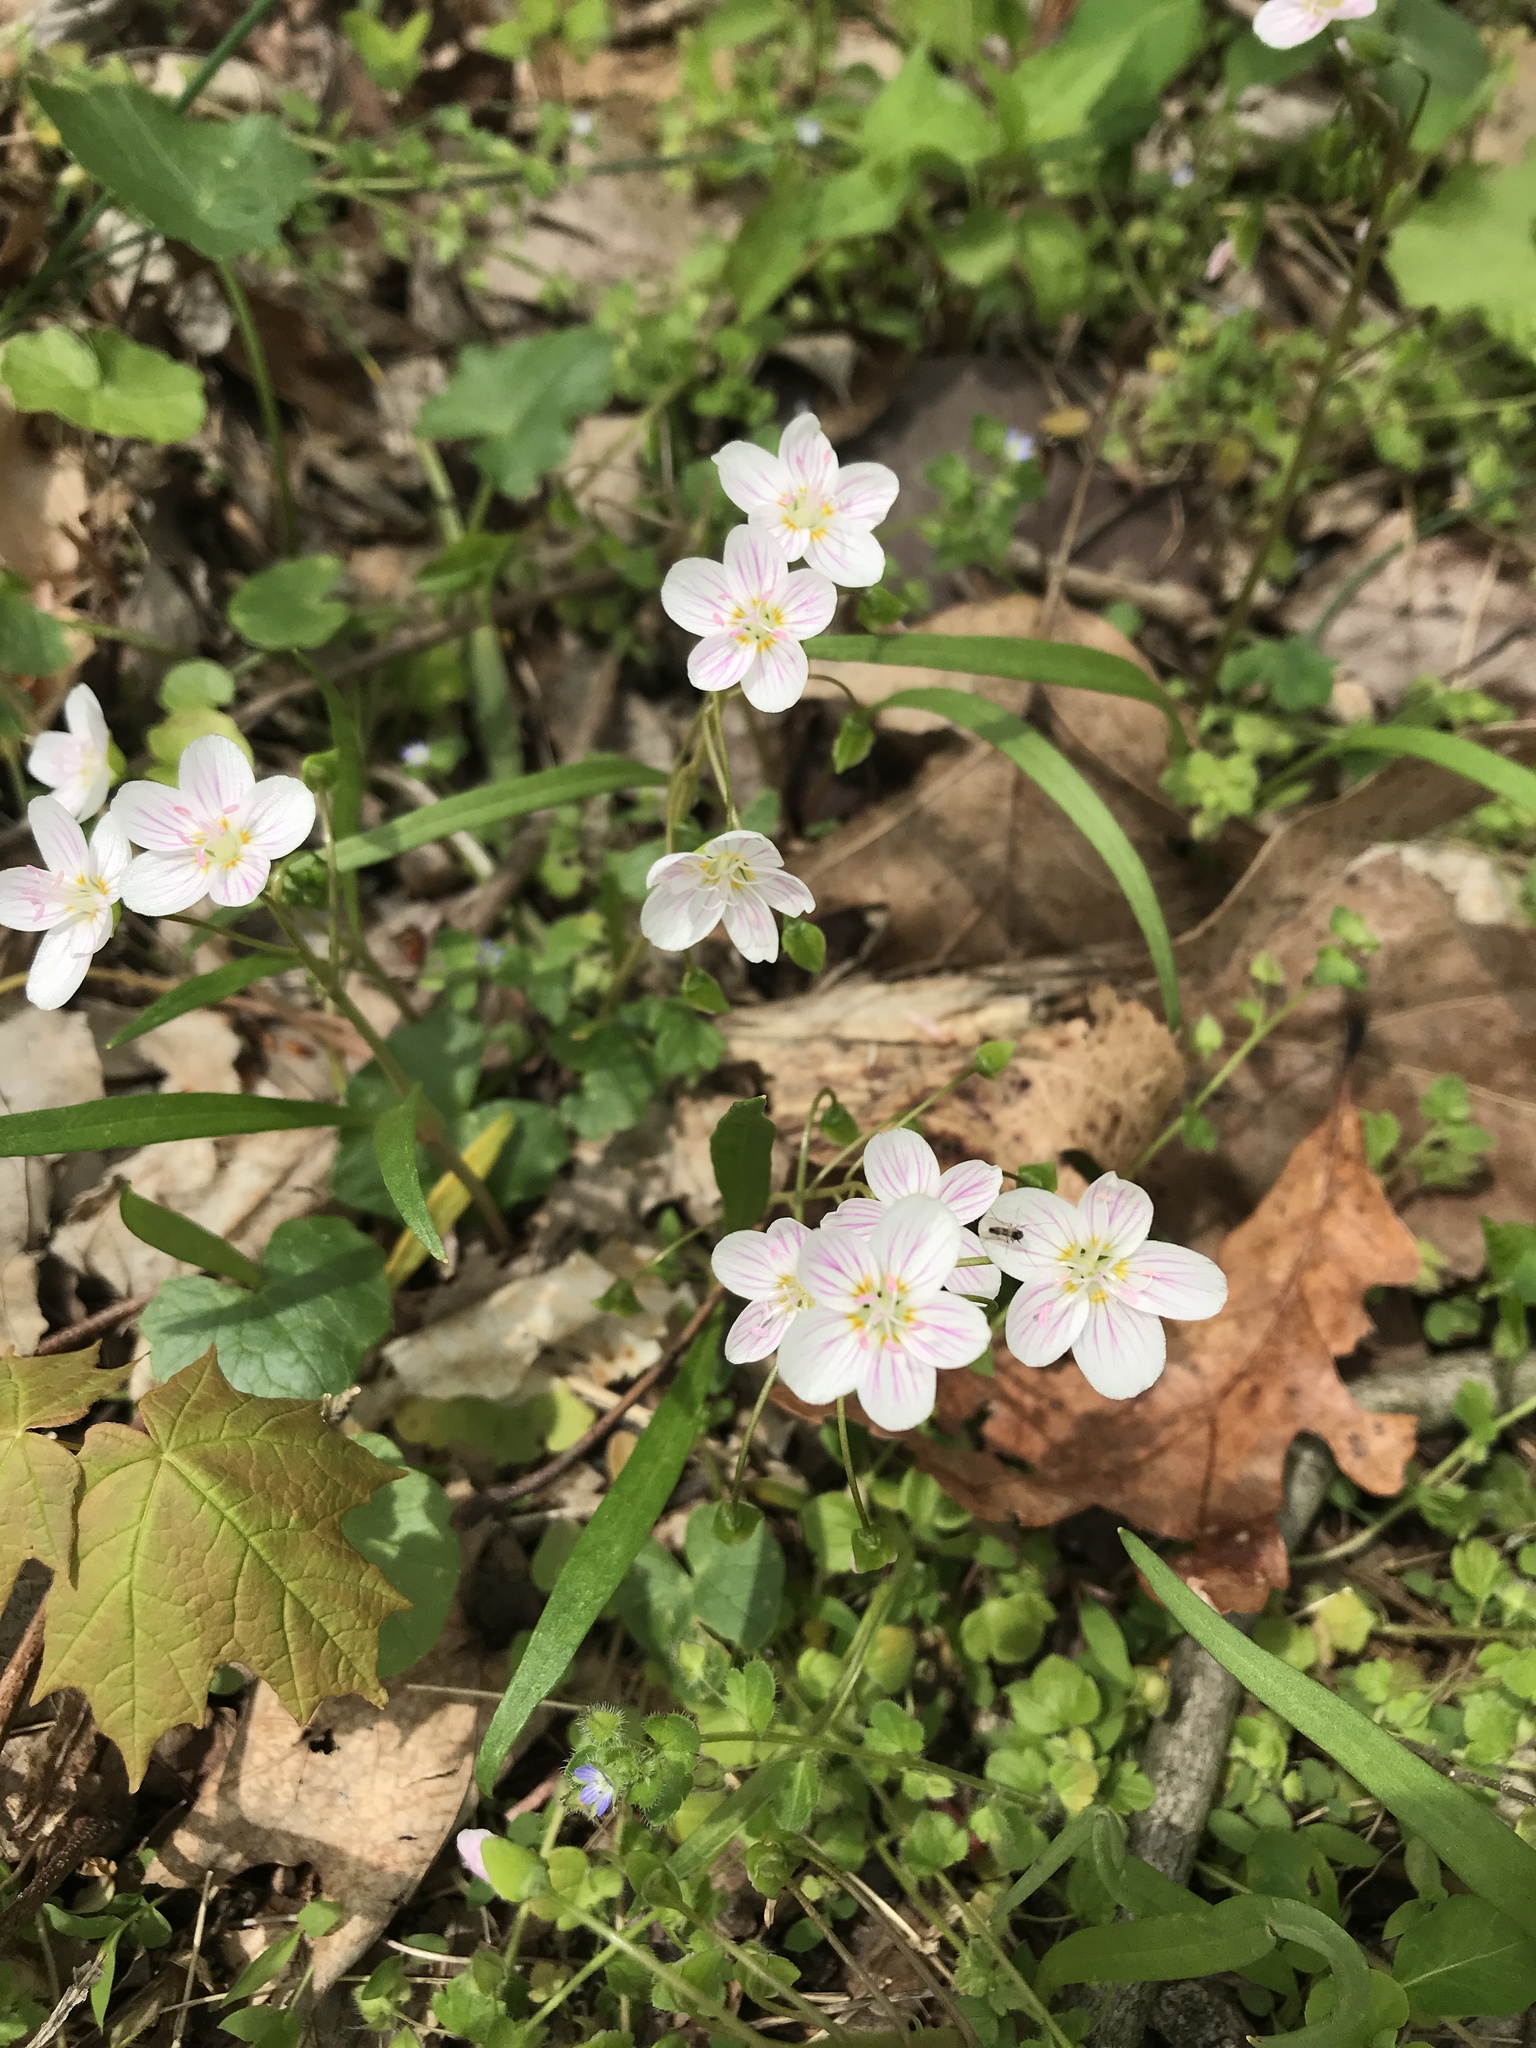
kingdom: Plantae
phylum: Tracheophyta
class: Magnoliopsida
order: Caryophyllales
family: Montiaceae
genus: Claytonia
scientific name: Claytonia virginica
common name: Virginia springbeauty
